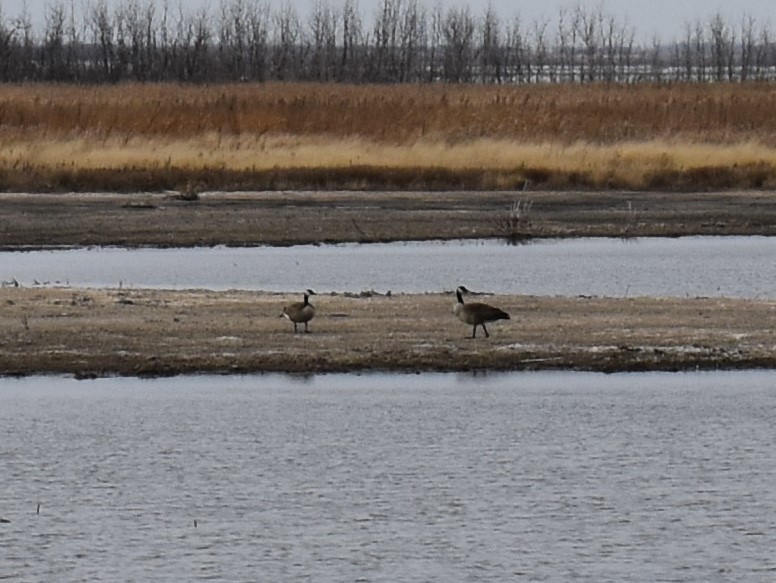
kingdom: Animalia
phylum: Chordata
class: Aves
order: Anseriformes
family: Anatidae
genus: Branta
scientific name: Branta canadensis
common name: Canada goose
